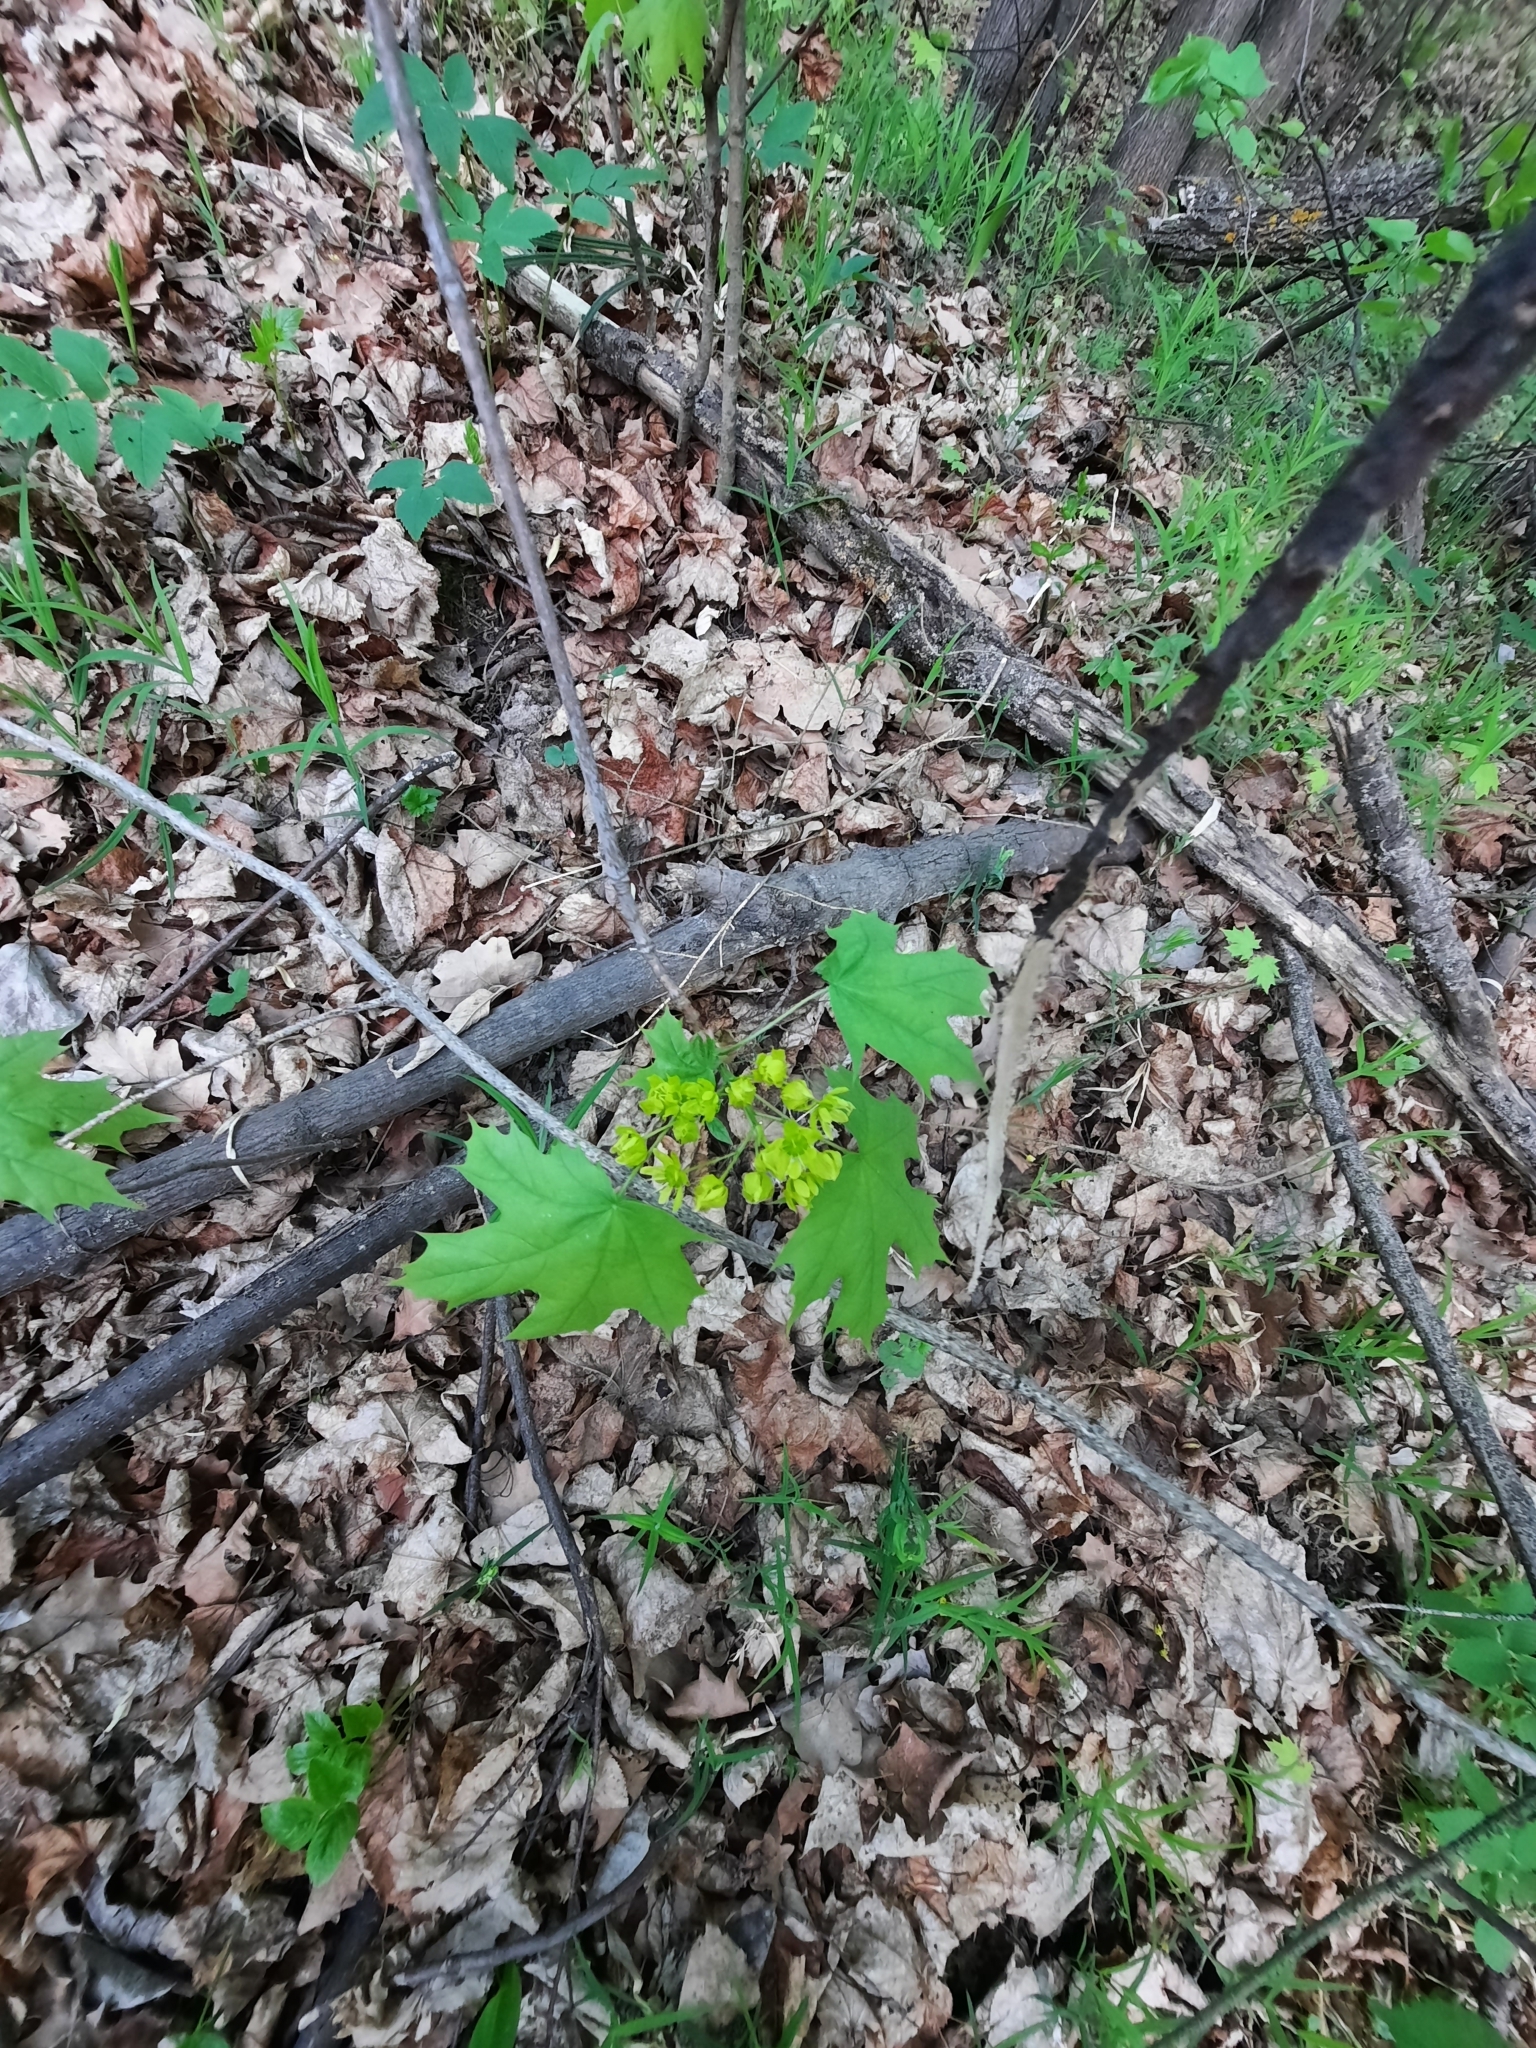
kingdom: Plantae
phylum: Tracheophyta
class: Magnoliopsida
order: Sapindales
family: Sapindaceae
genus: Acer
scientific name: Acer platanoides
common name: Norway maple
